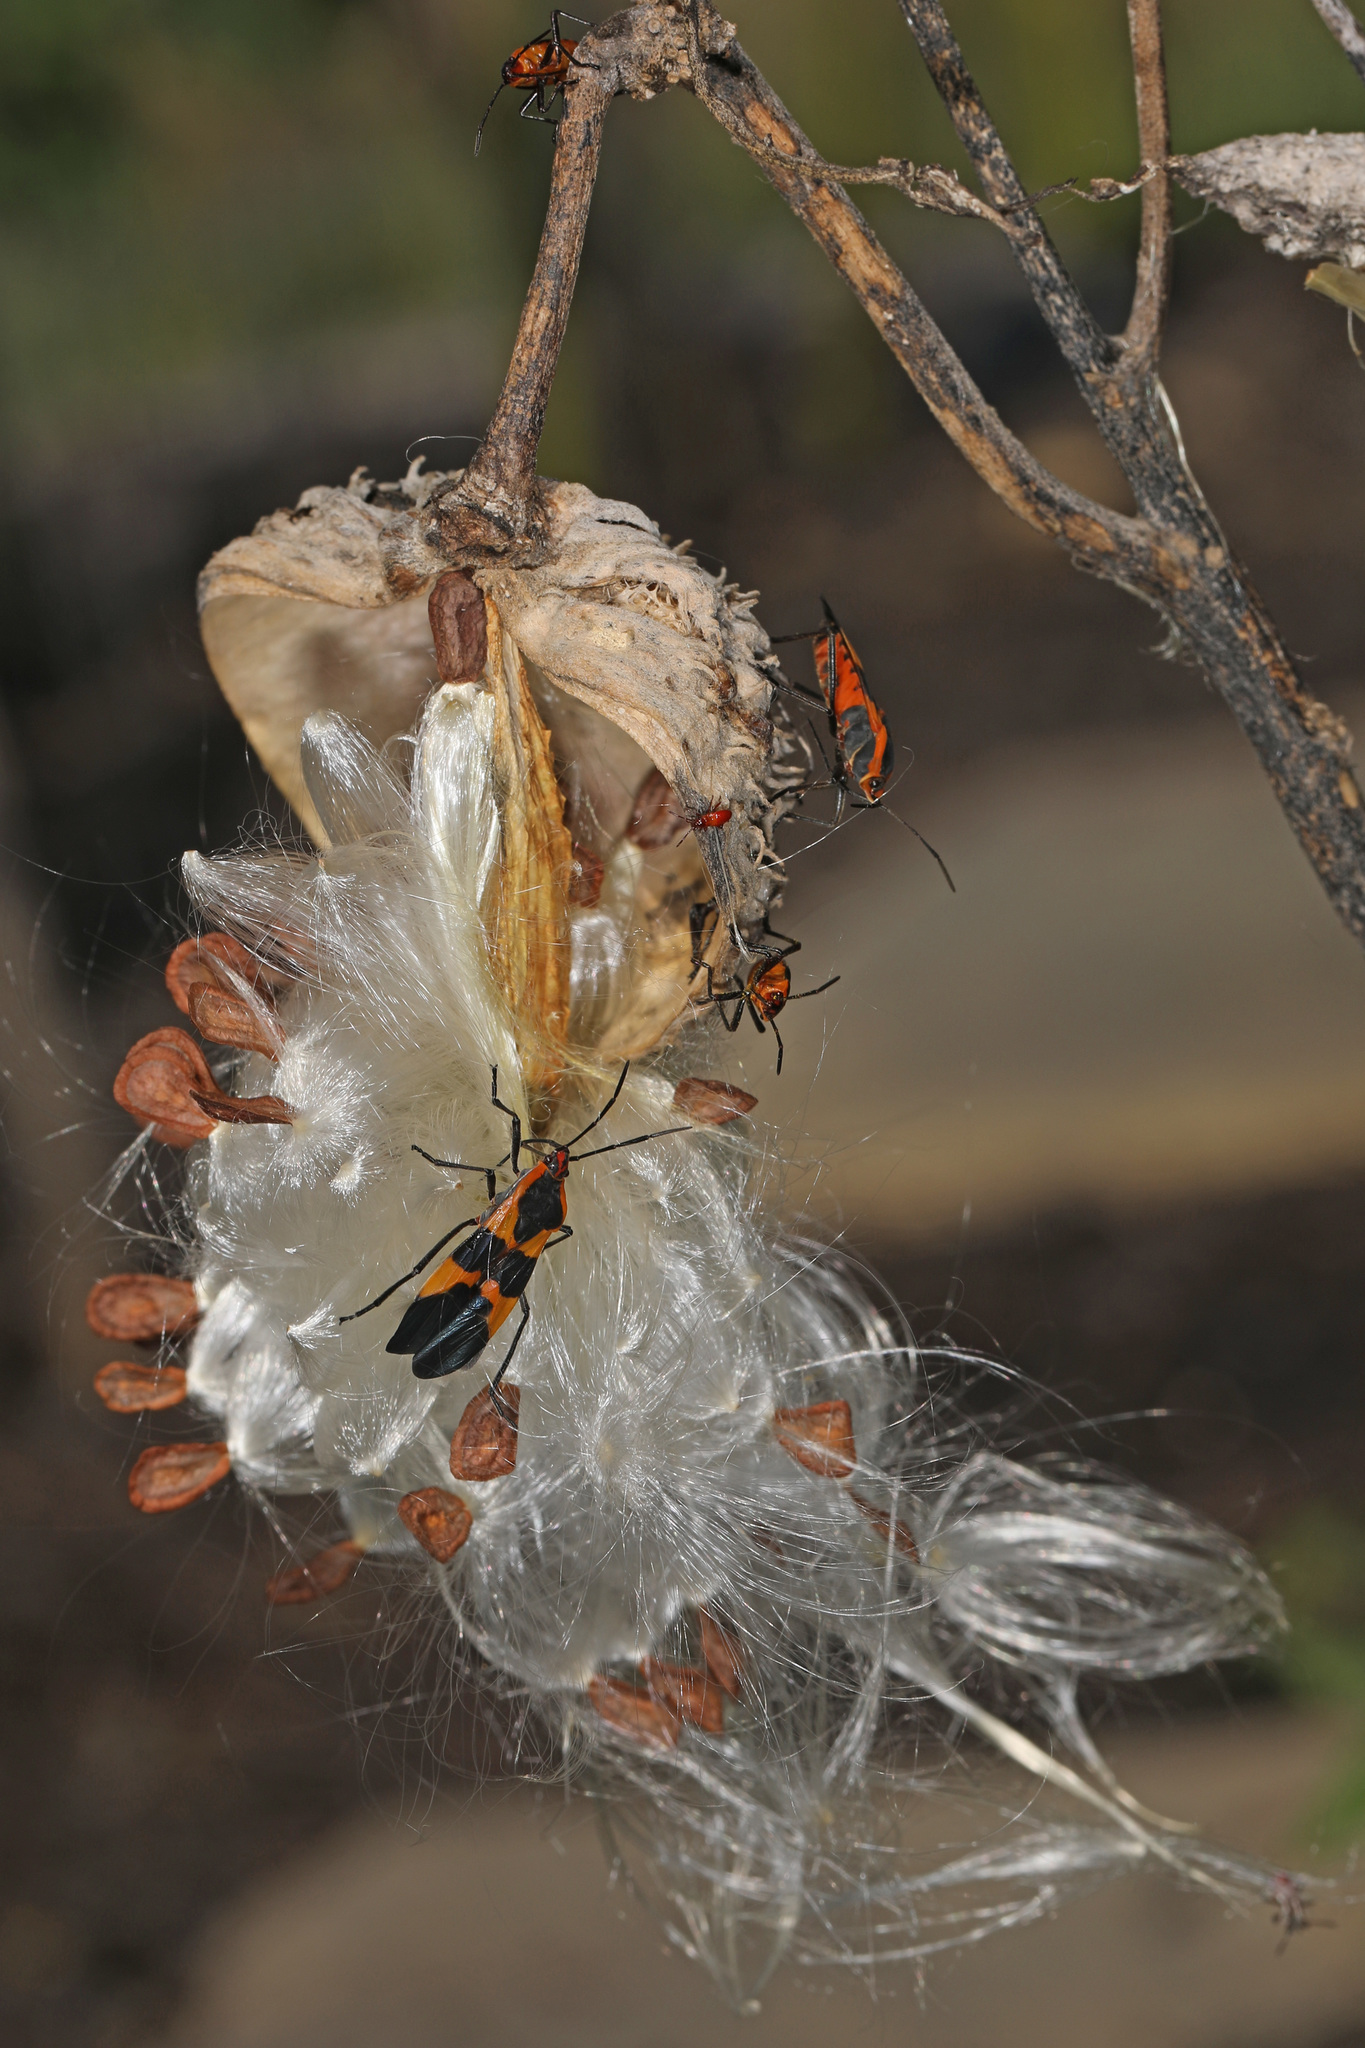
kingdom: Animalia
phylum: Arthropoda
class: Insecta
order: Hemiptera
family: Lygaeidae
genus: Oncopeltus
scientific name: Oncopeltus fasciatus
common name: Large milkweed bug
